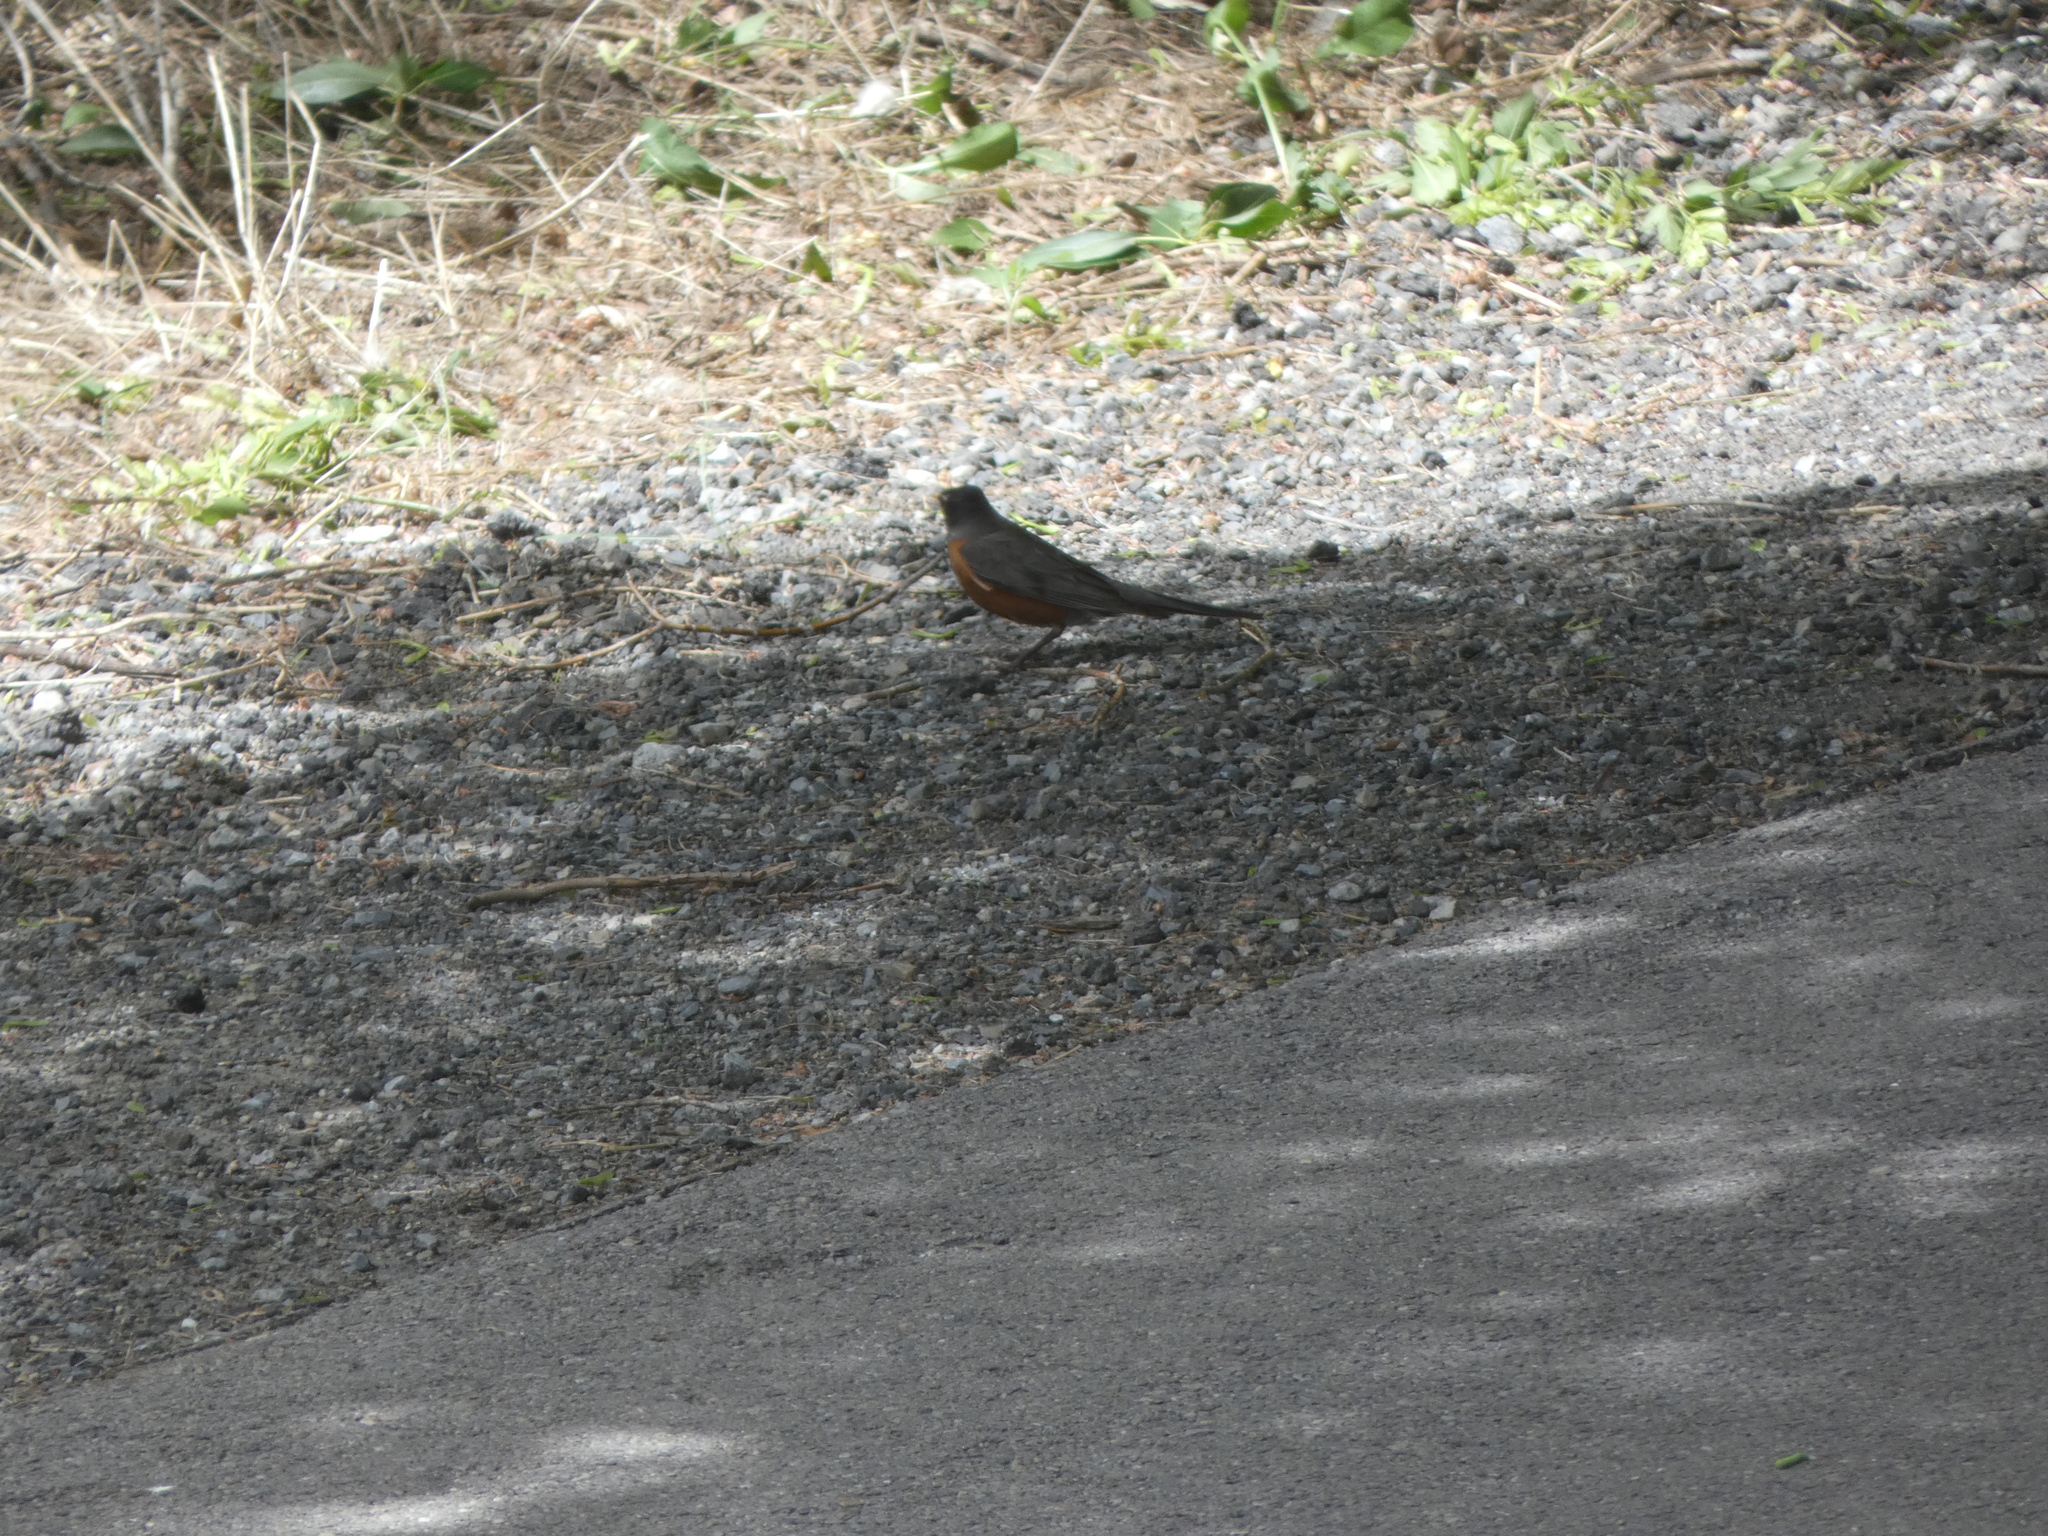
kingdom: Animalia
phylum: Chordata
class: Aves
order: Passeriformes
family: Turdidae
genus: Turdus
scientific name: Turdus migratorius
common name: American robin
